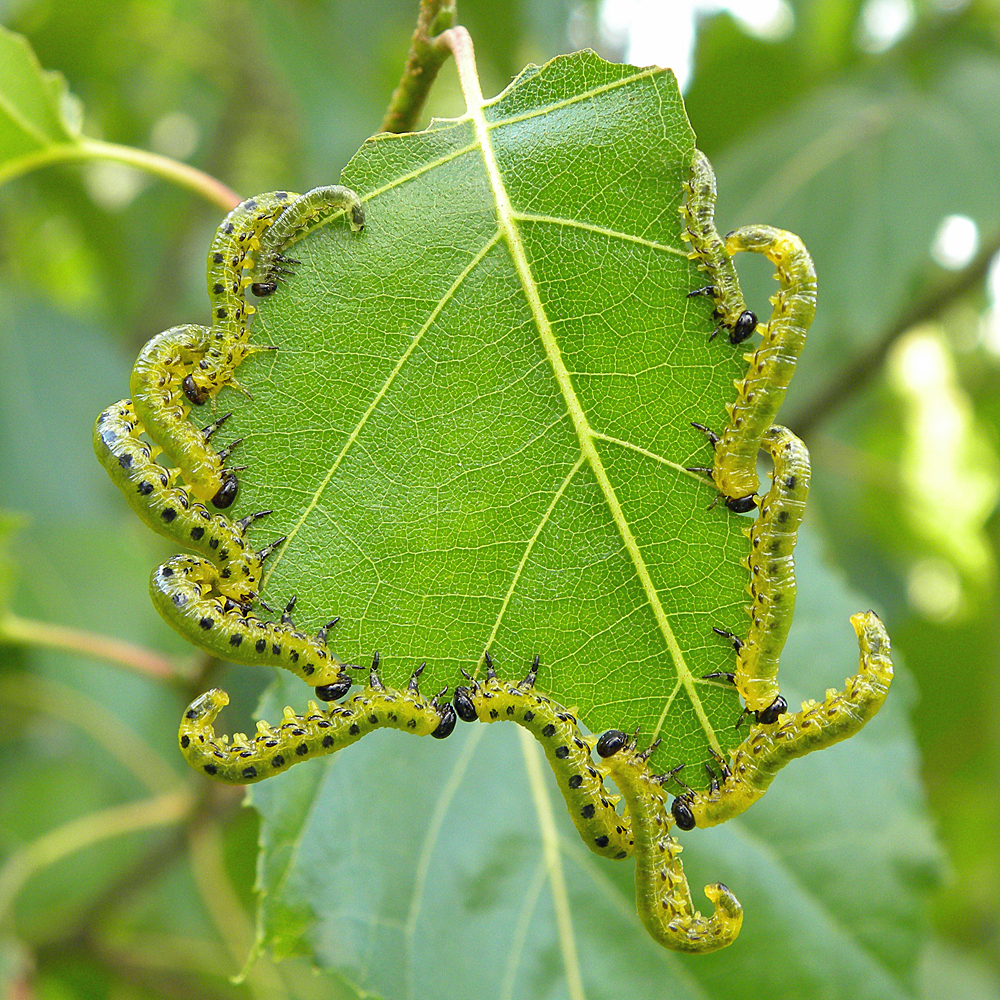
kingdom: Animalia
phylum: Arthropoda
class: Insecta
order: Hymenoptera
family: Tenthredinidae
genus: Nematus
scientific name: Nematus
